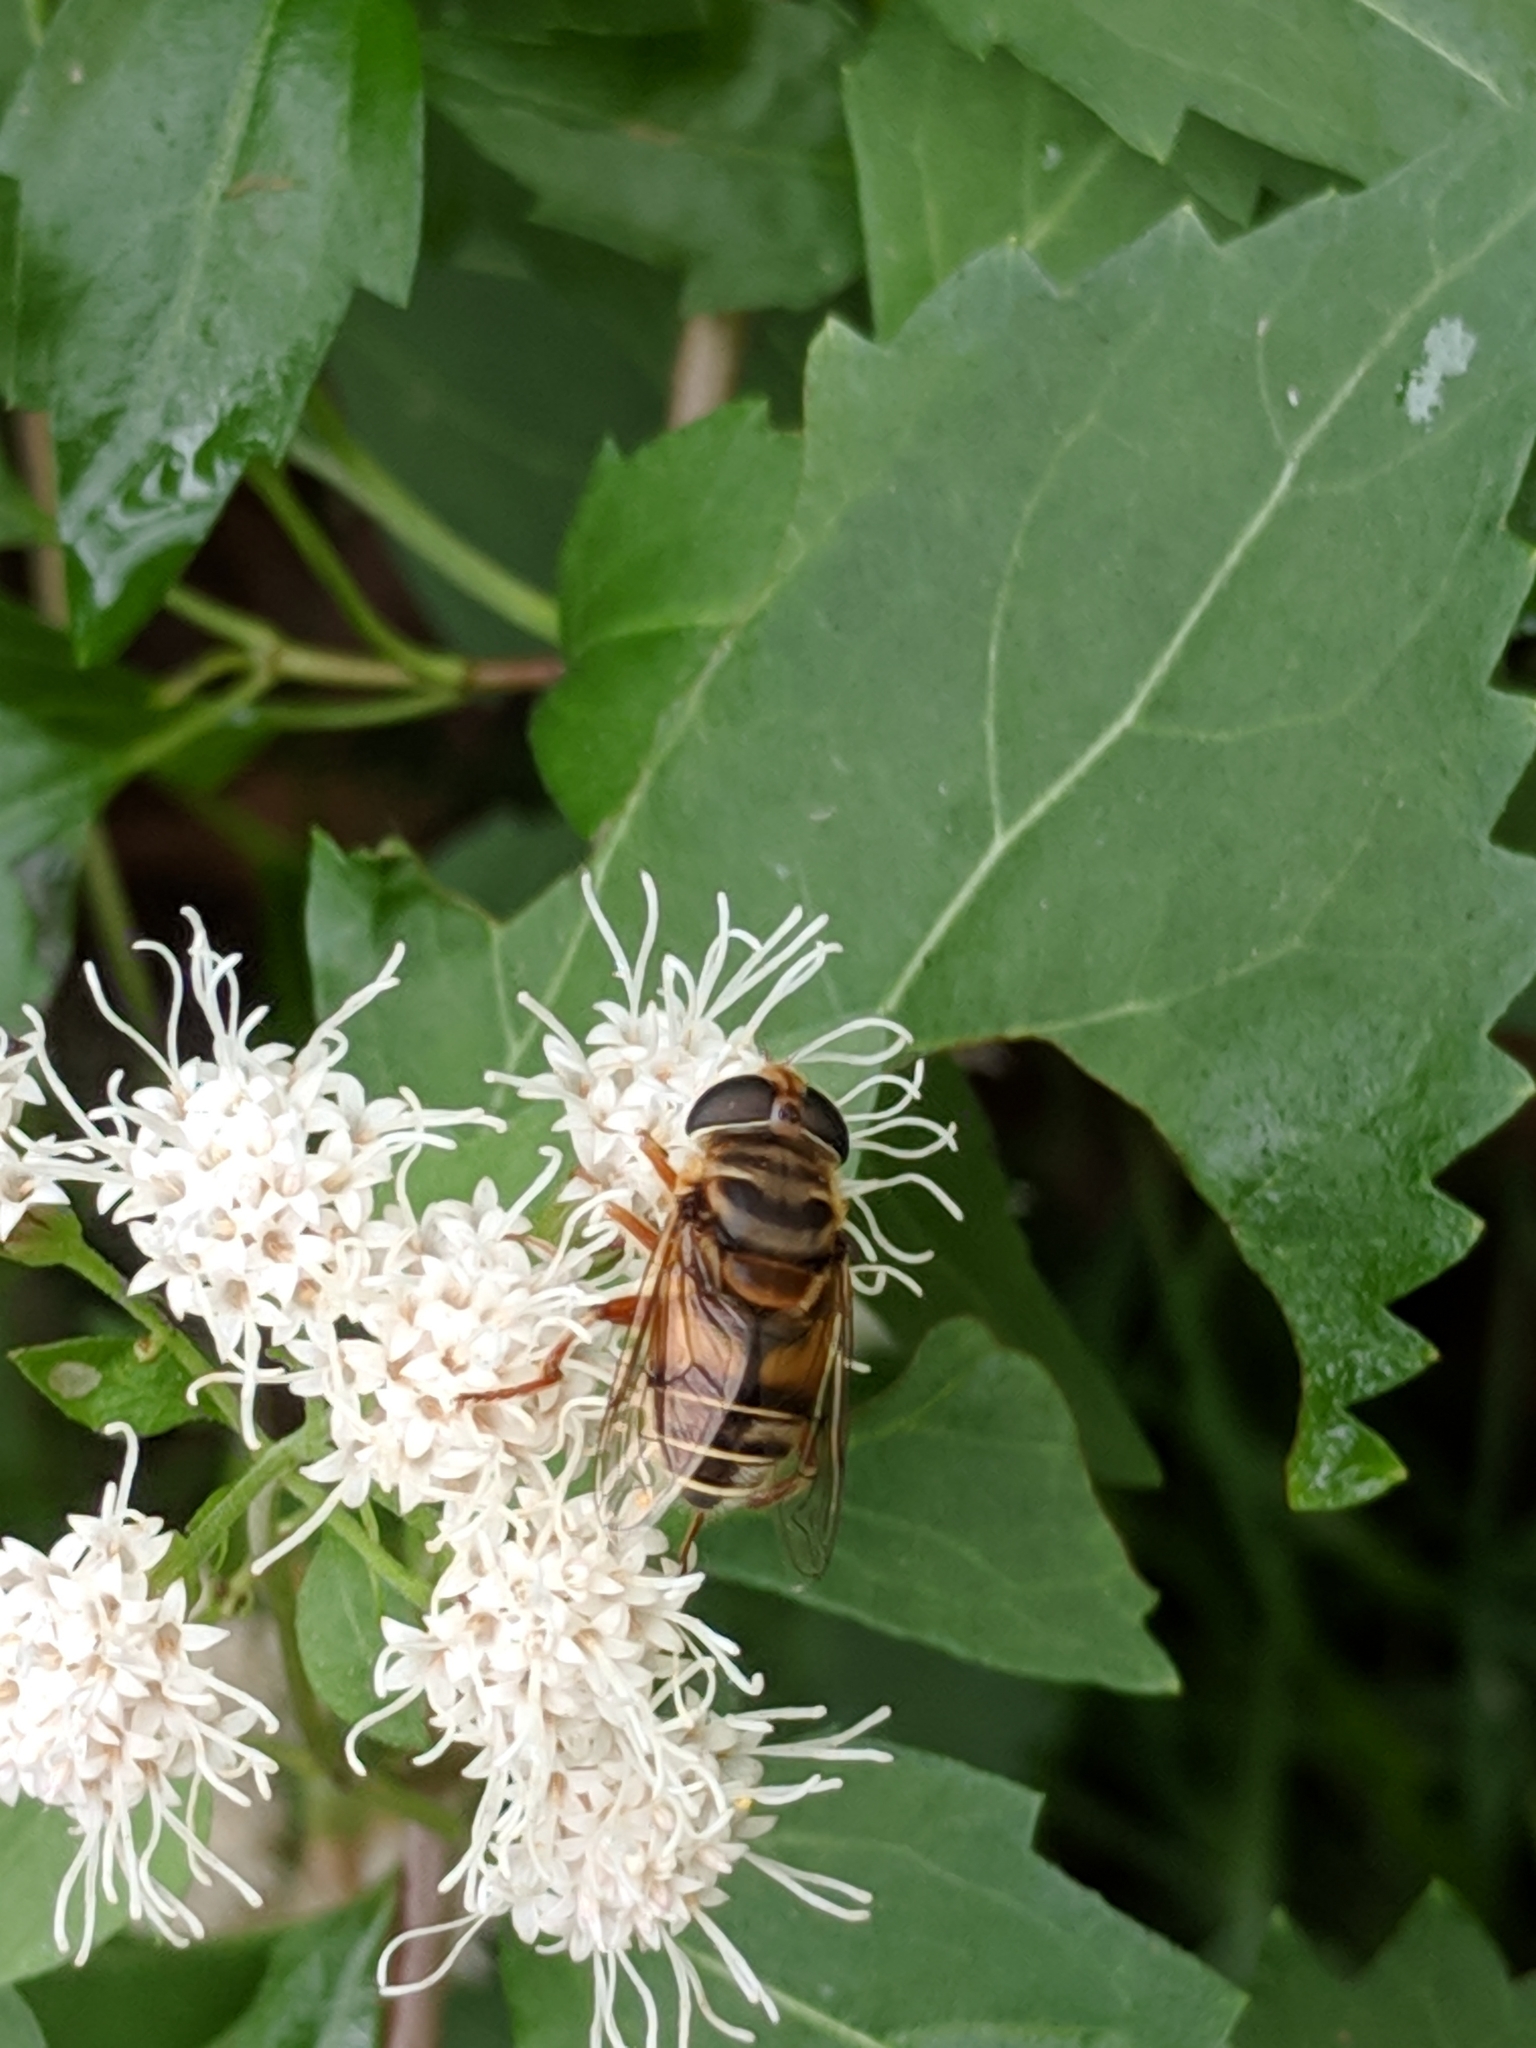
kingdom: Animalia
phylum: Arthropoda
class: Insecta
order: Diptera
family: Syrphidae
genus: Palpada
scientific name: Palpada vinetorum
